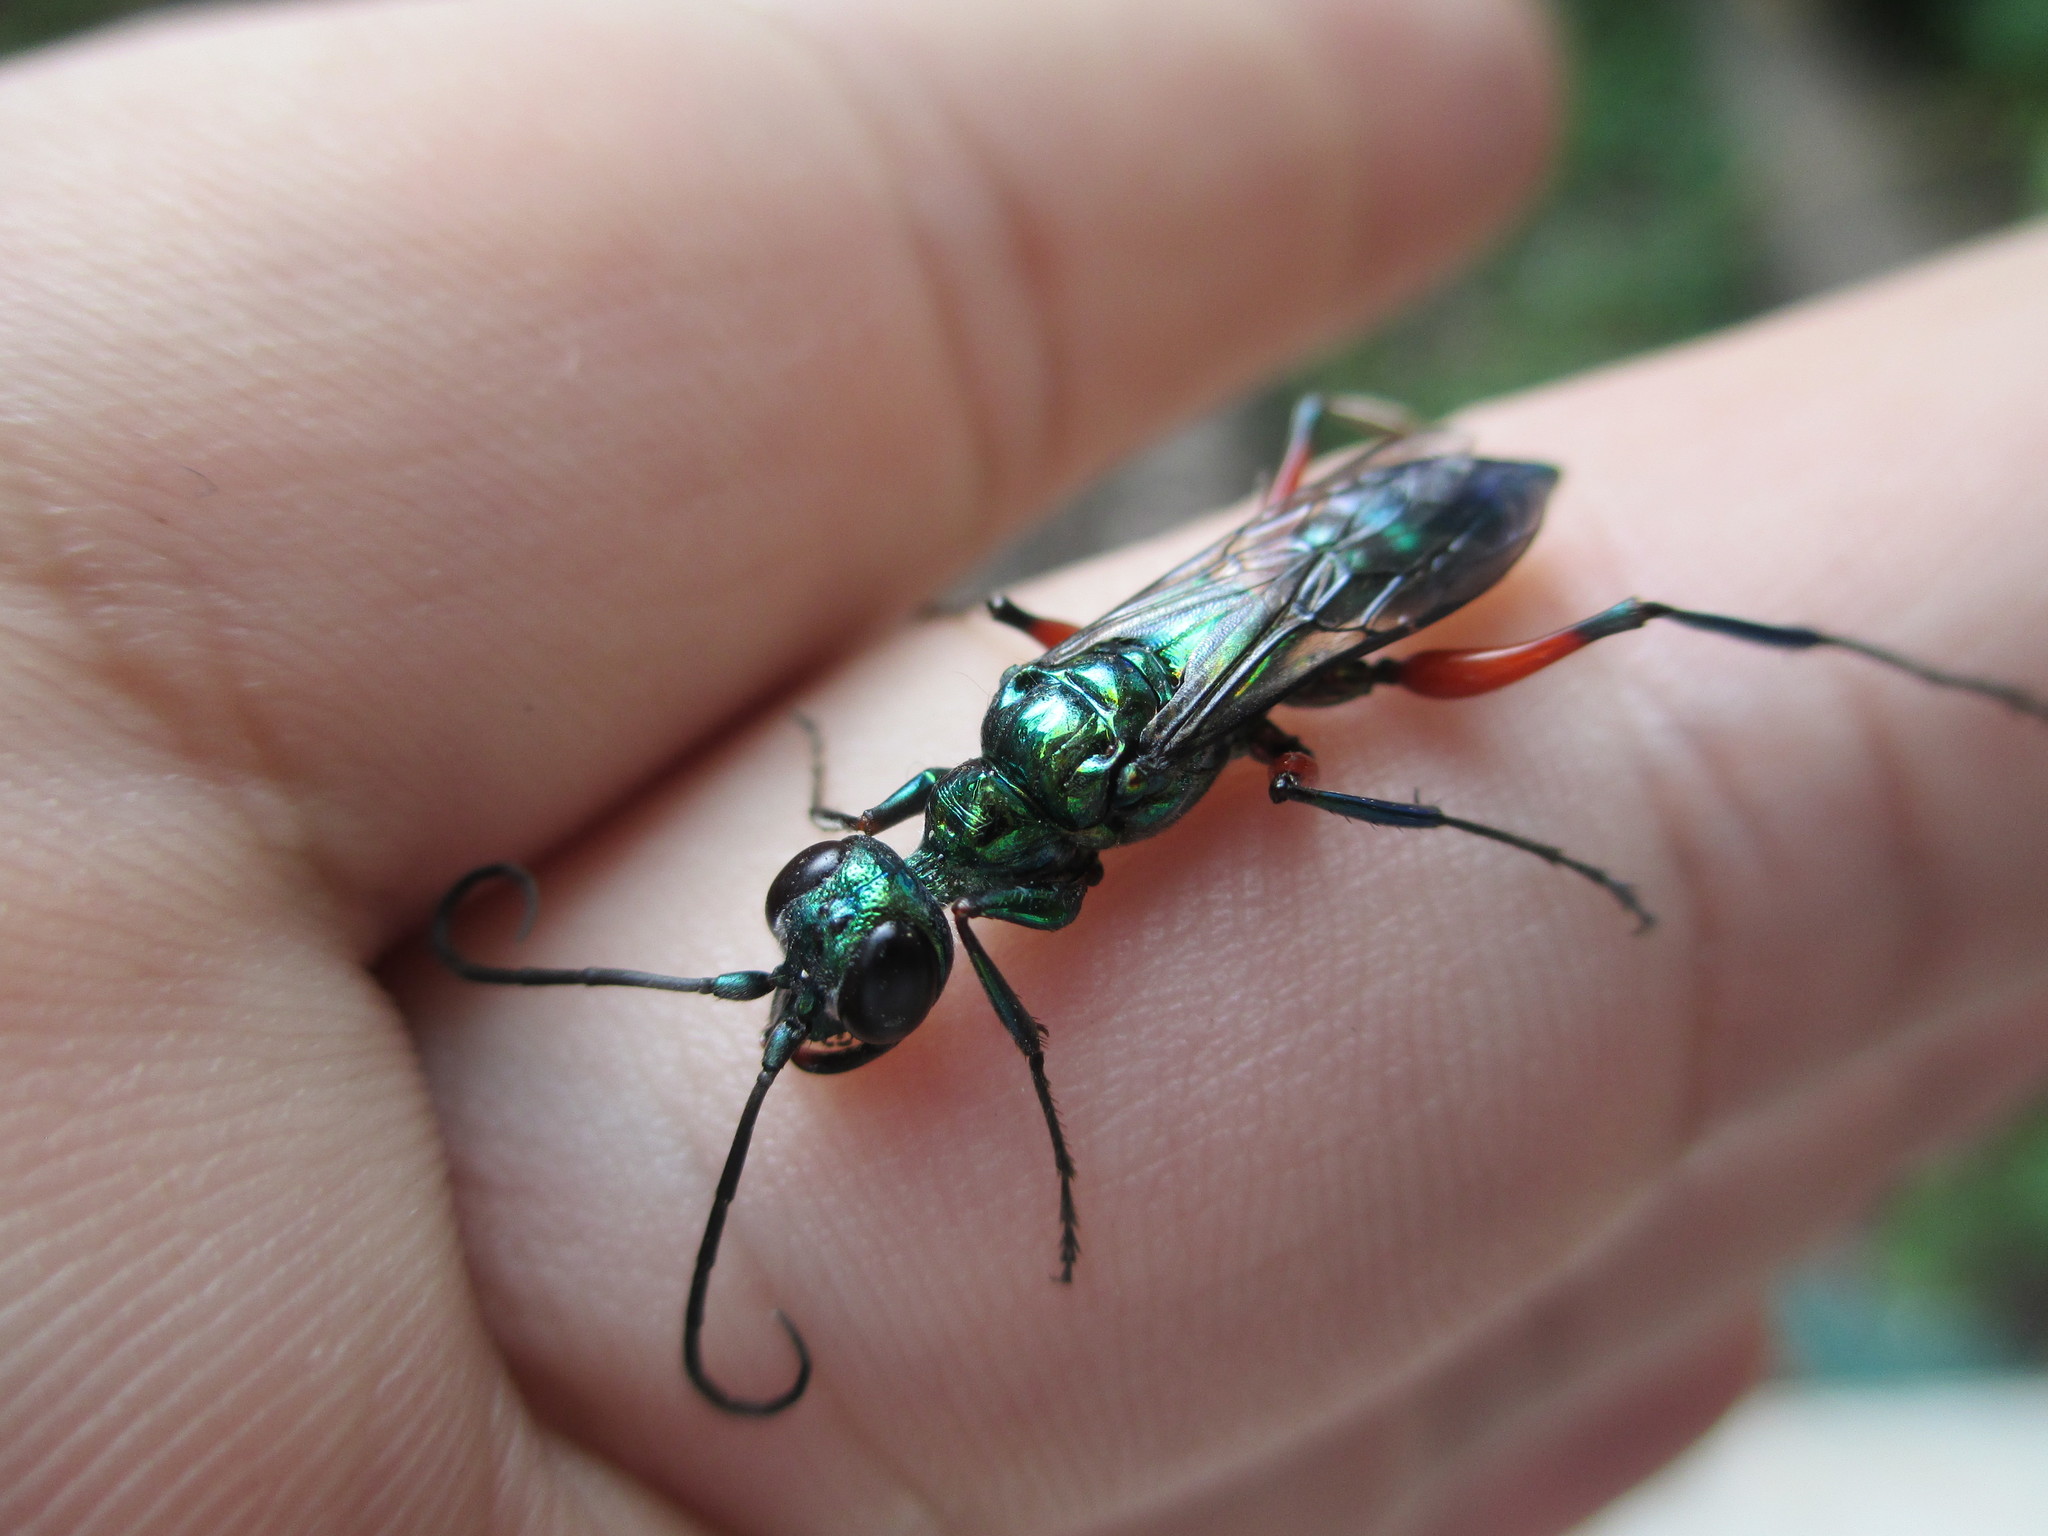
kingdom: Animalia
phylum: Arthropoda
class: Insecta
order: Hymenoptera
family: Ampulicidae
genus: Ampulex
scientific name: Ampulex compressa
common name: Emerald cockroach wasp
